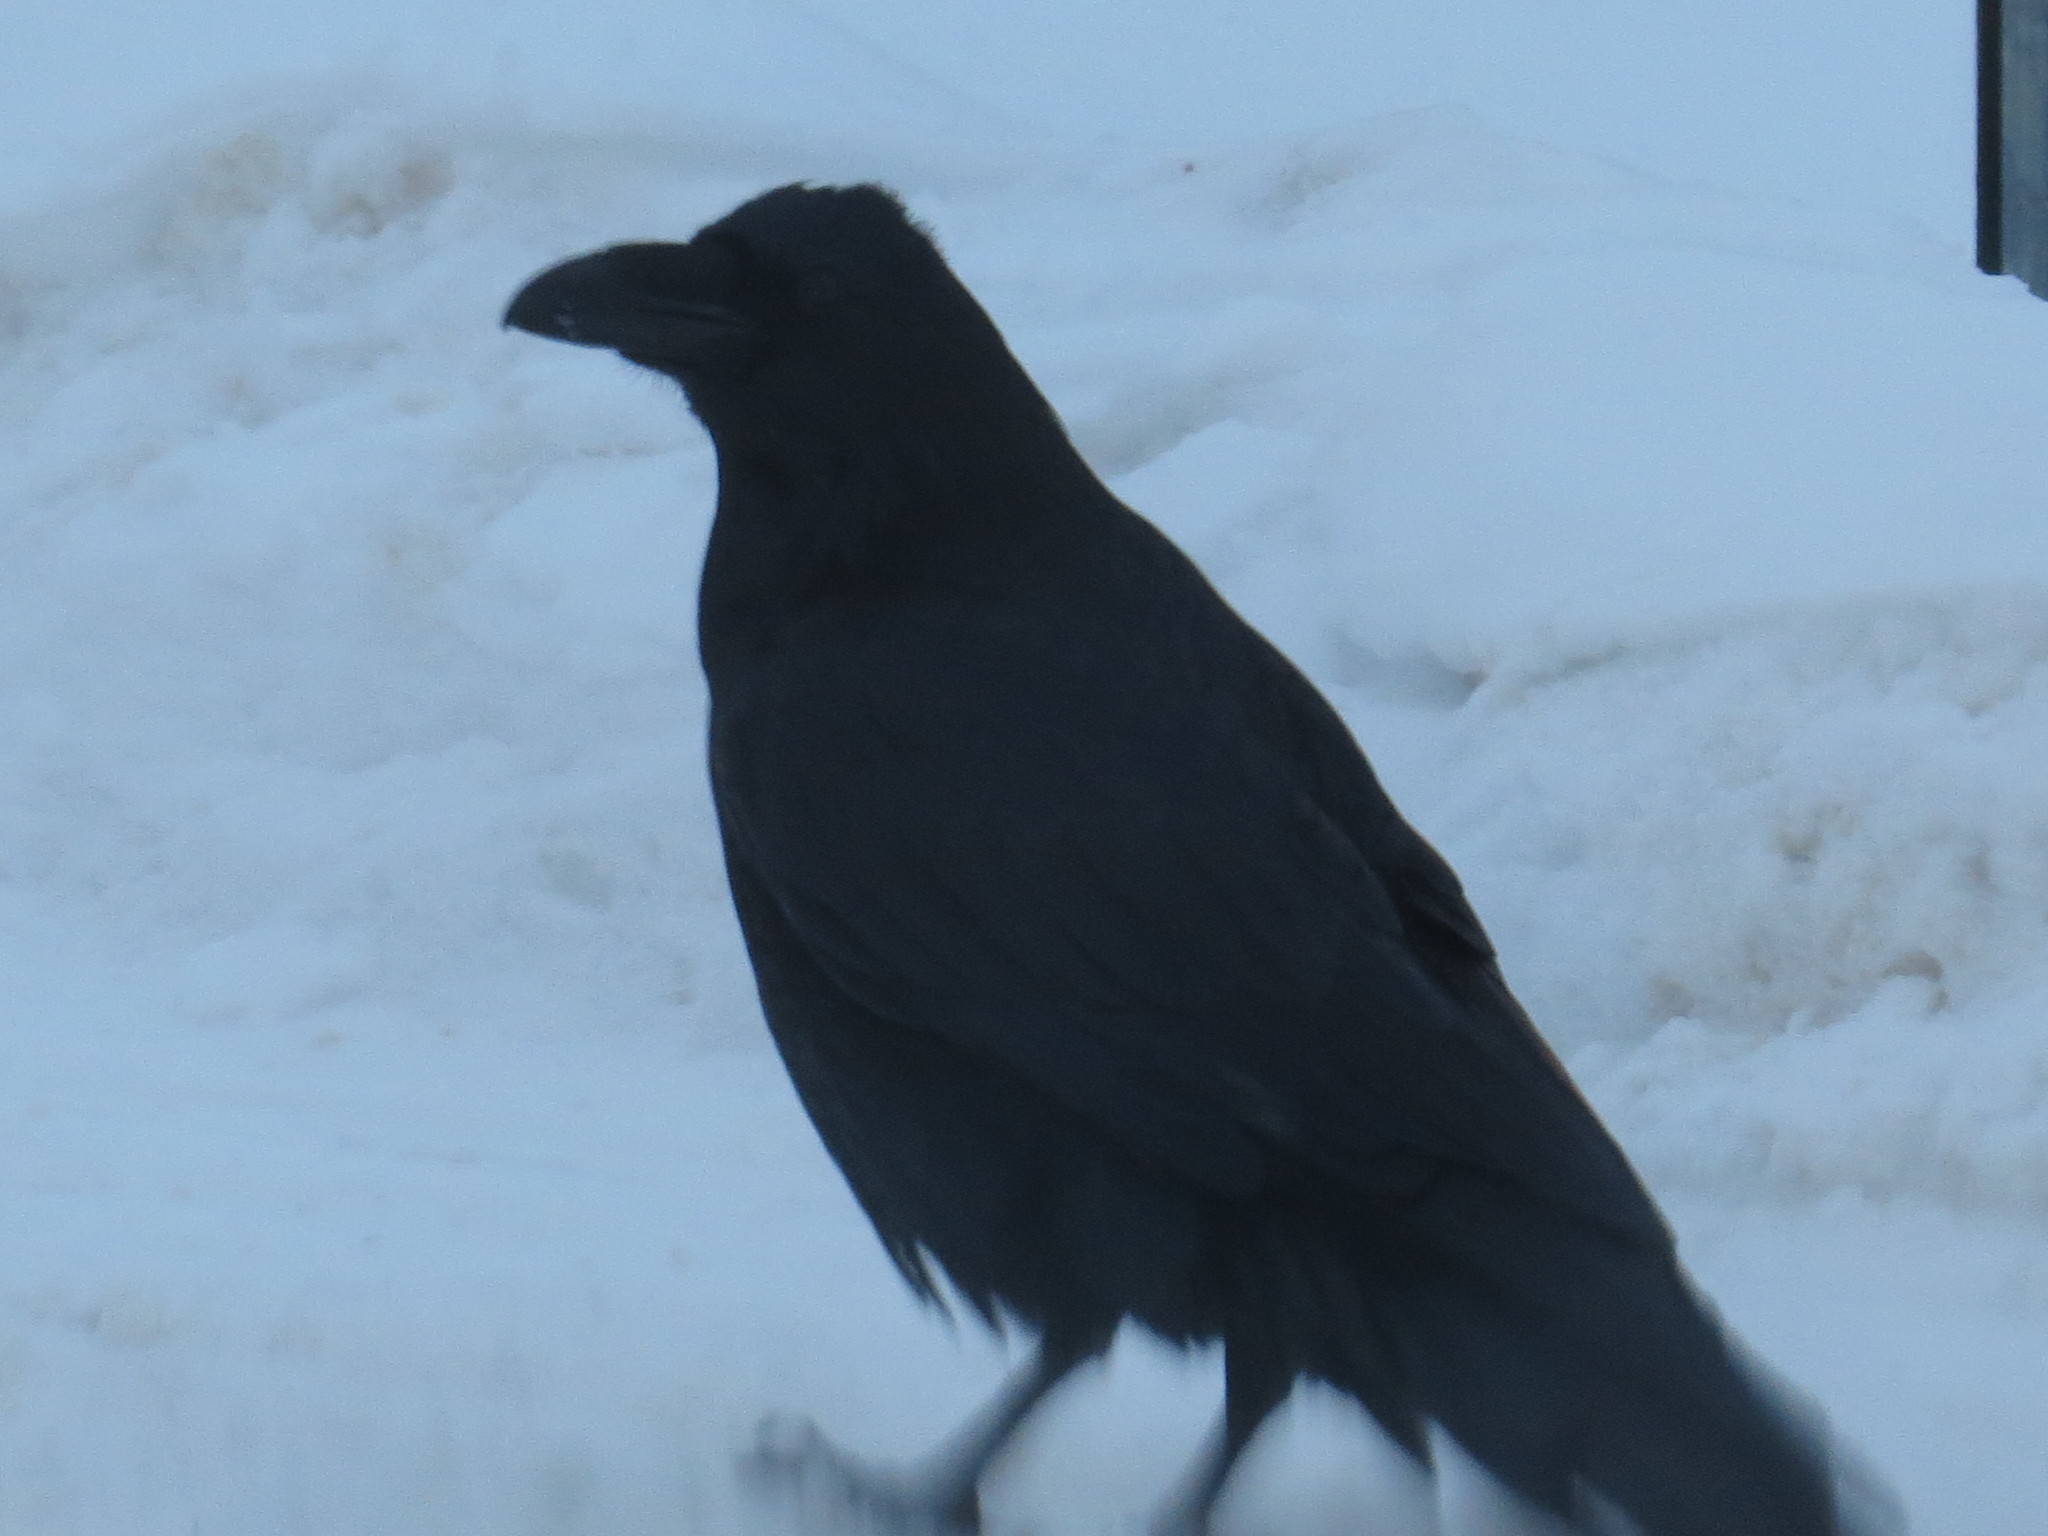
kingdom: Animalia
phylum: Chordata
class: Aves
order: Passeriformes
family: Corvidae
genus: Corvus
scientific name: Corvus corax
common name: Common raven
